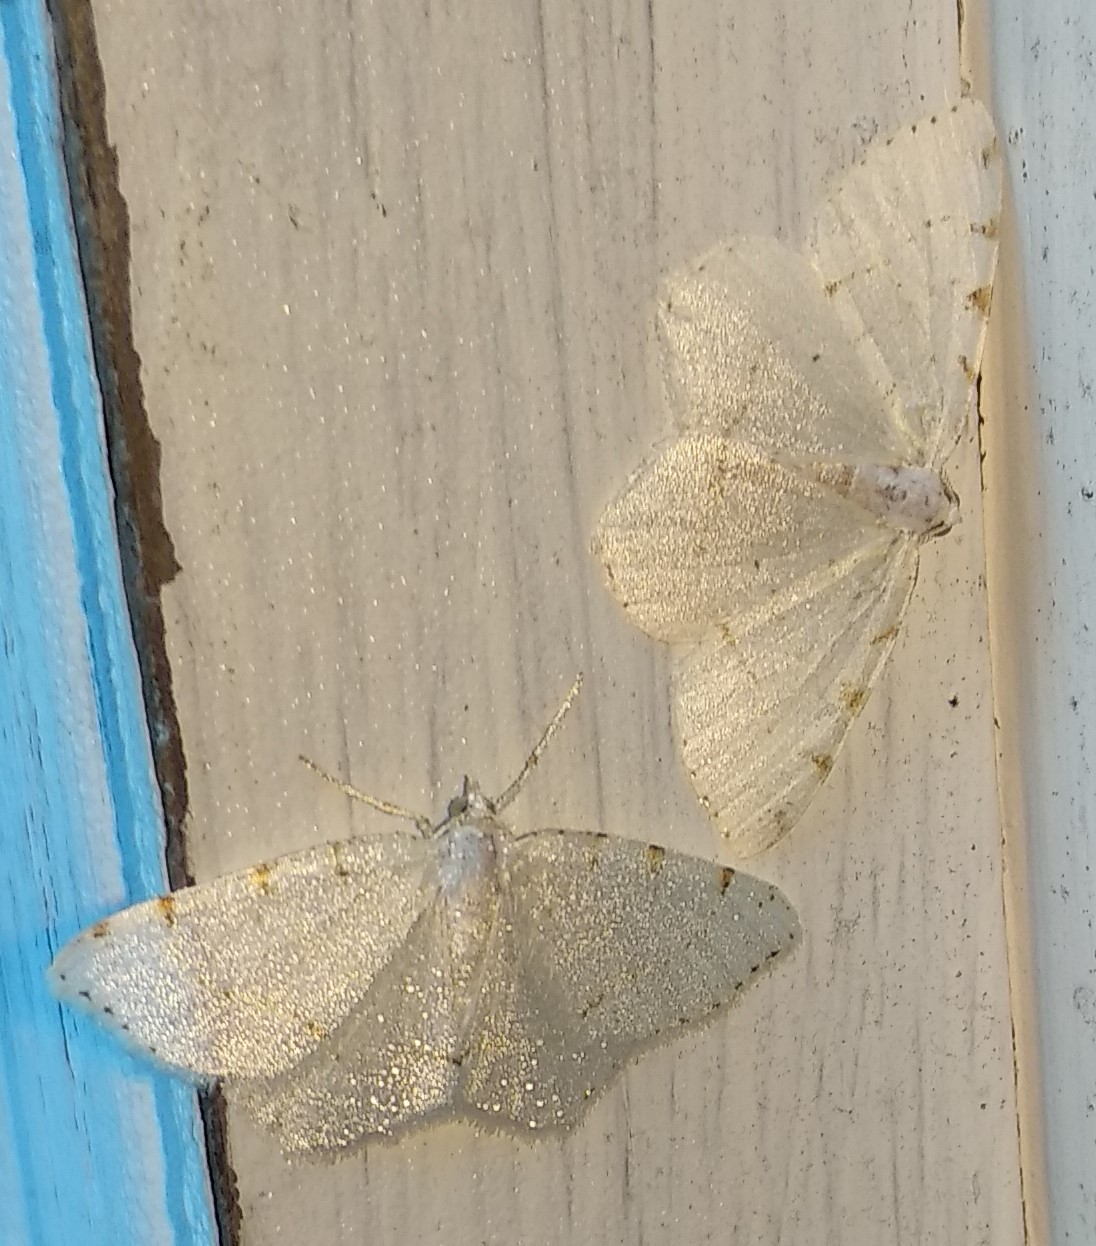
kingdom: Animalia
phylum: Arthropoda
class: Insecta
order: Lepidoptera
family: Geometridae
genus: Macaria
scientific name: Macaria pustularia
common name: Lesser maple spanworm moth
